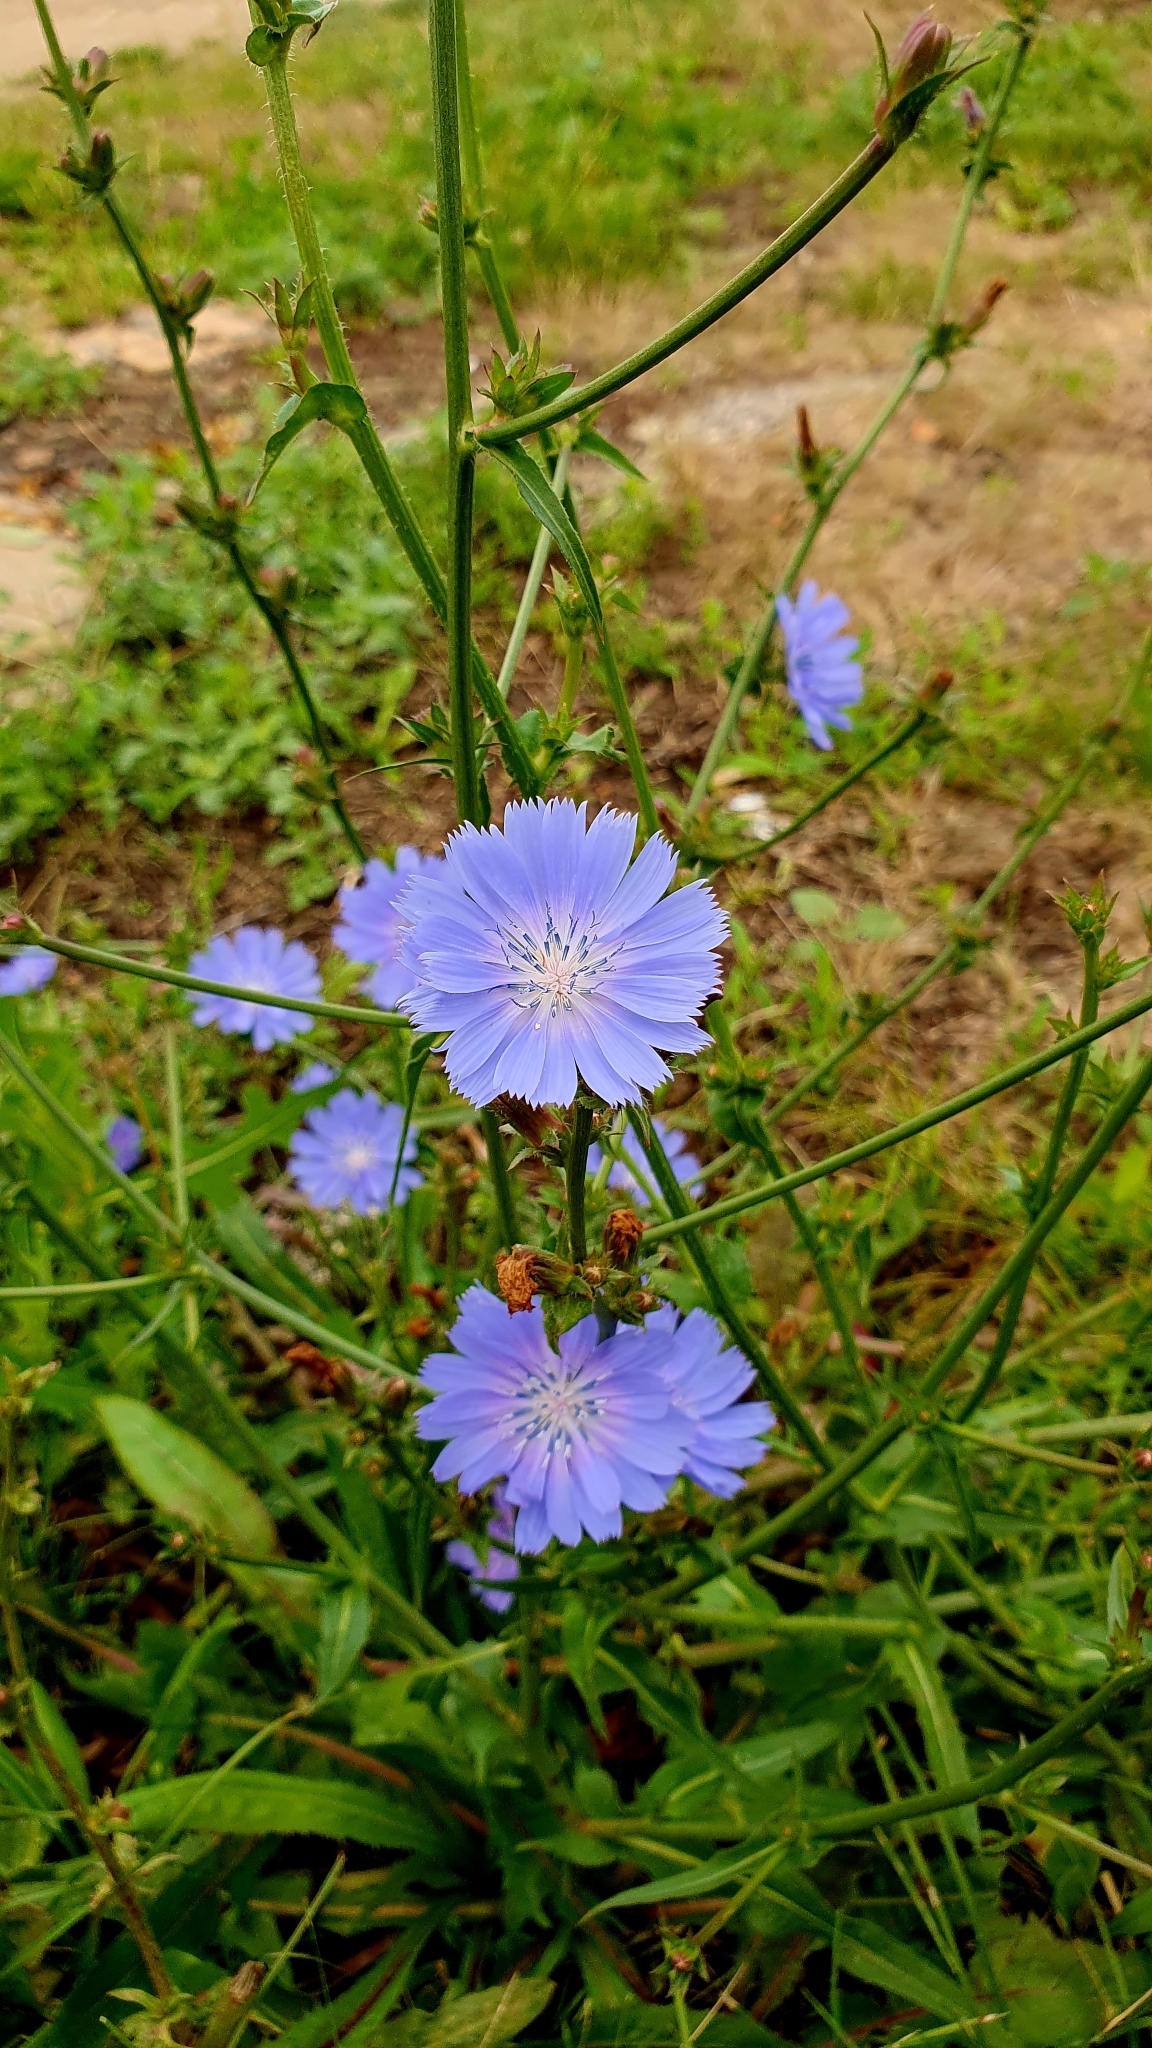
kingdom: Plantae
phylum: Tracheophyta
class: Magnoliopsida
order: Asterales
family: Asteraceae
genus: Cichorium
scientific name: Cichorium intybus
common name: Chicory
